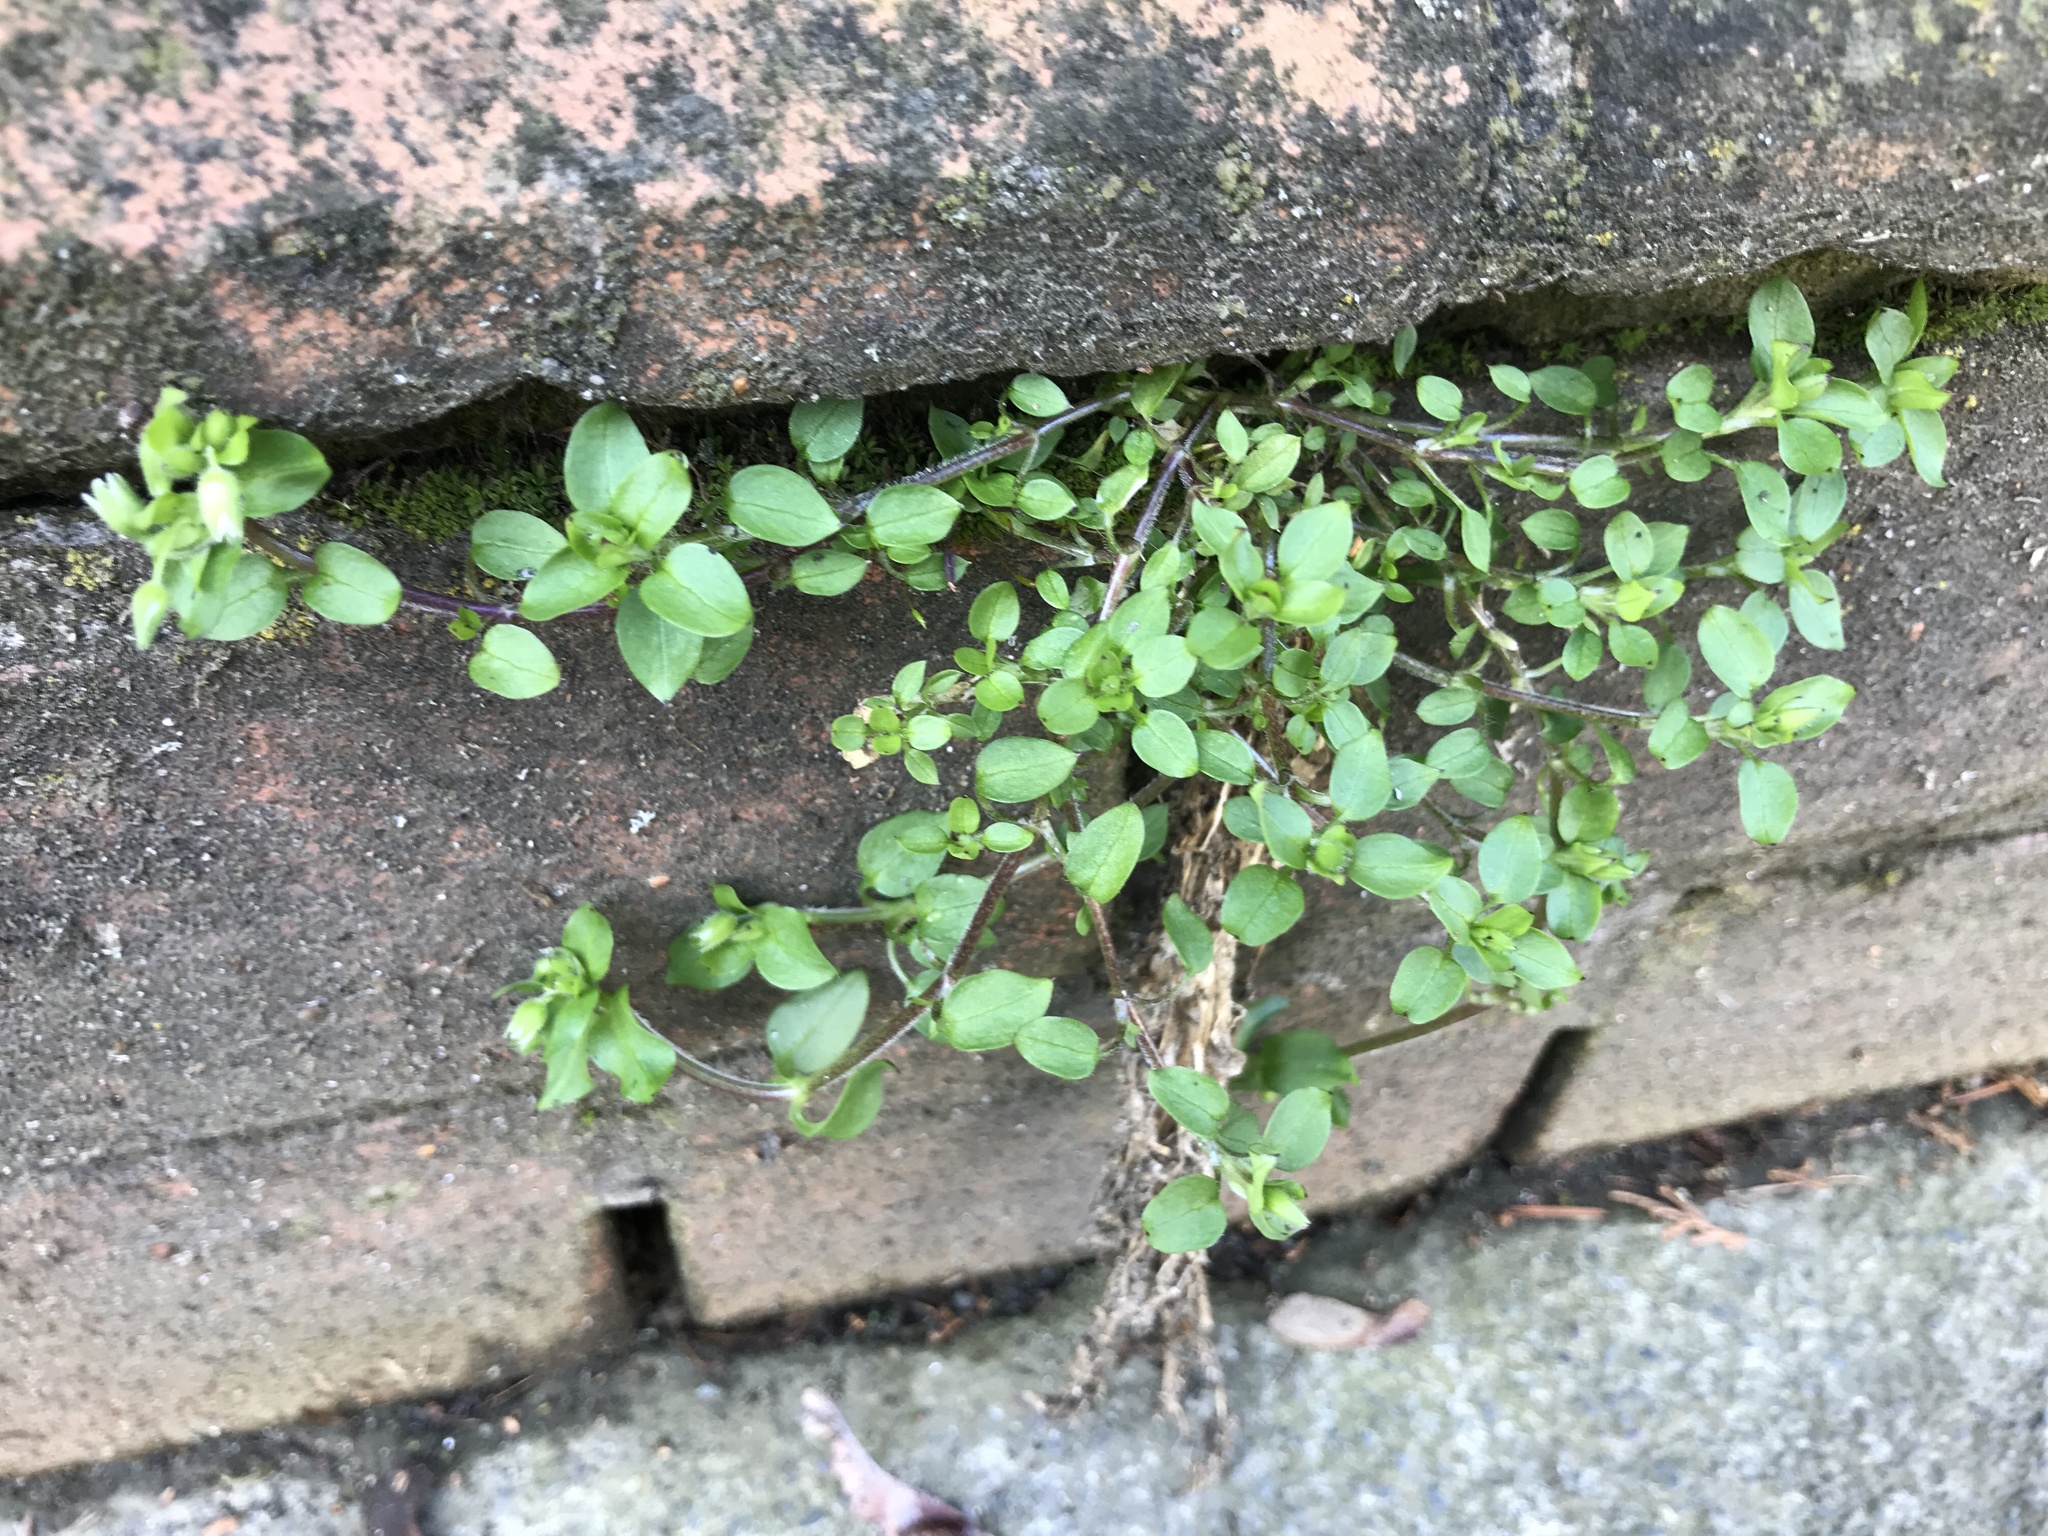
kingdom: Plantae
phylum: Tracheophyta
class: Magnoliopsida
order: Caryophyllales
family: Caryophyllaceae
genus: Stellaria
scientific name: Stellaria media
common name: Common chickweed
